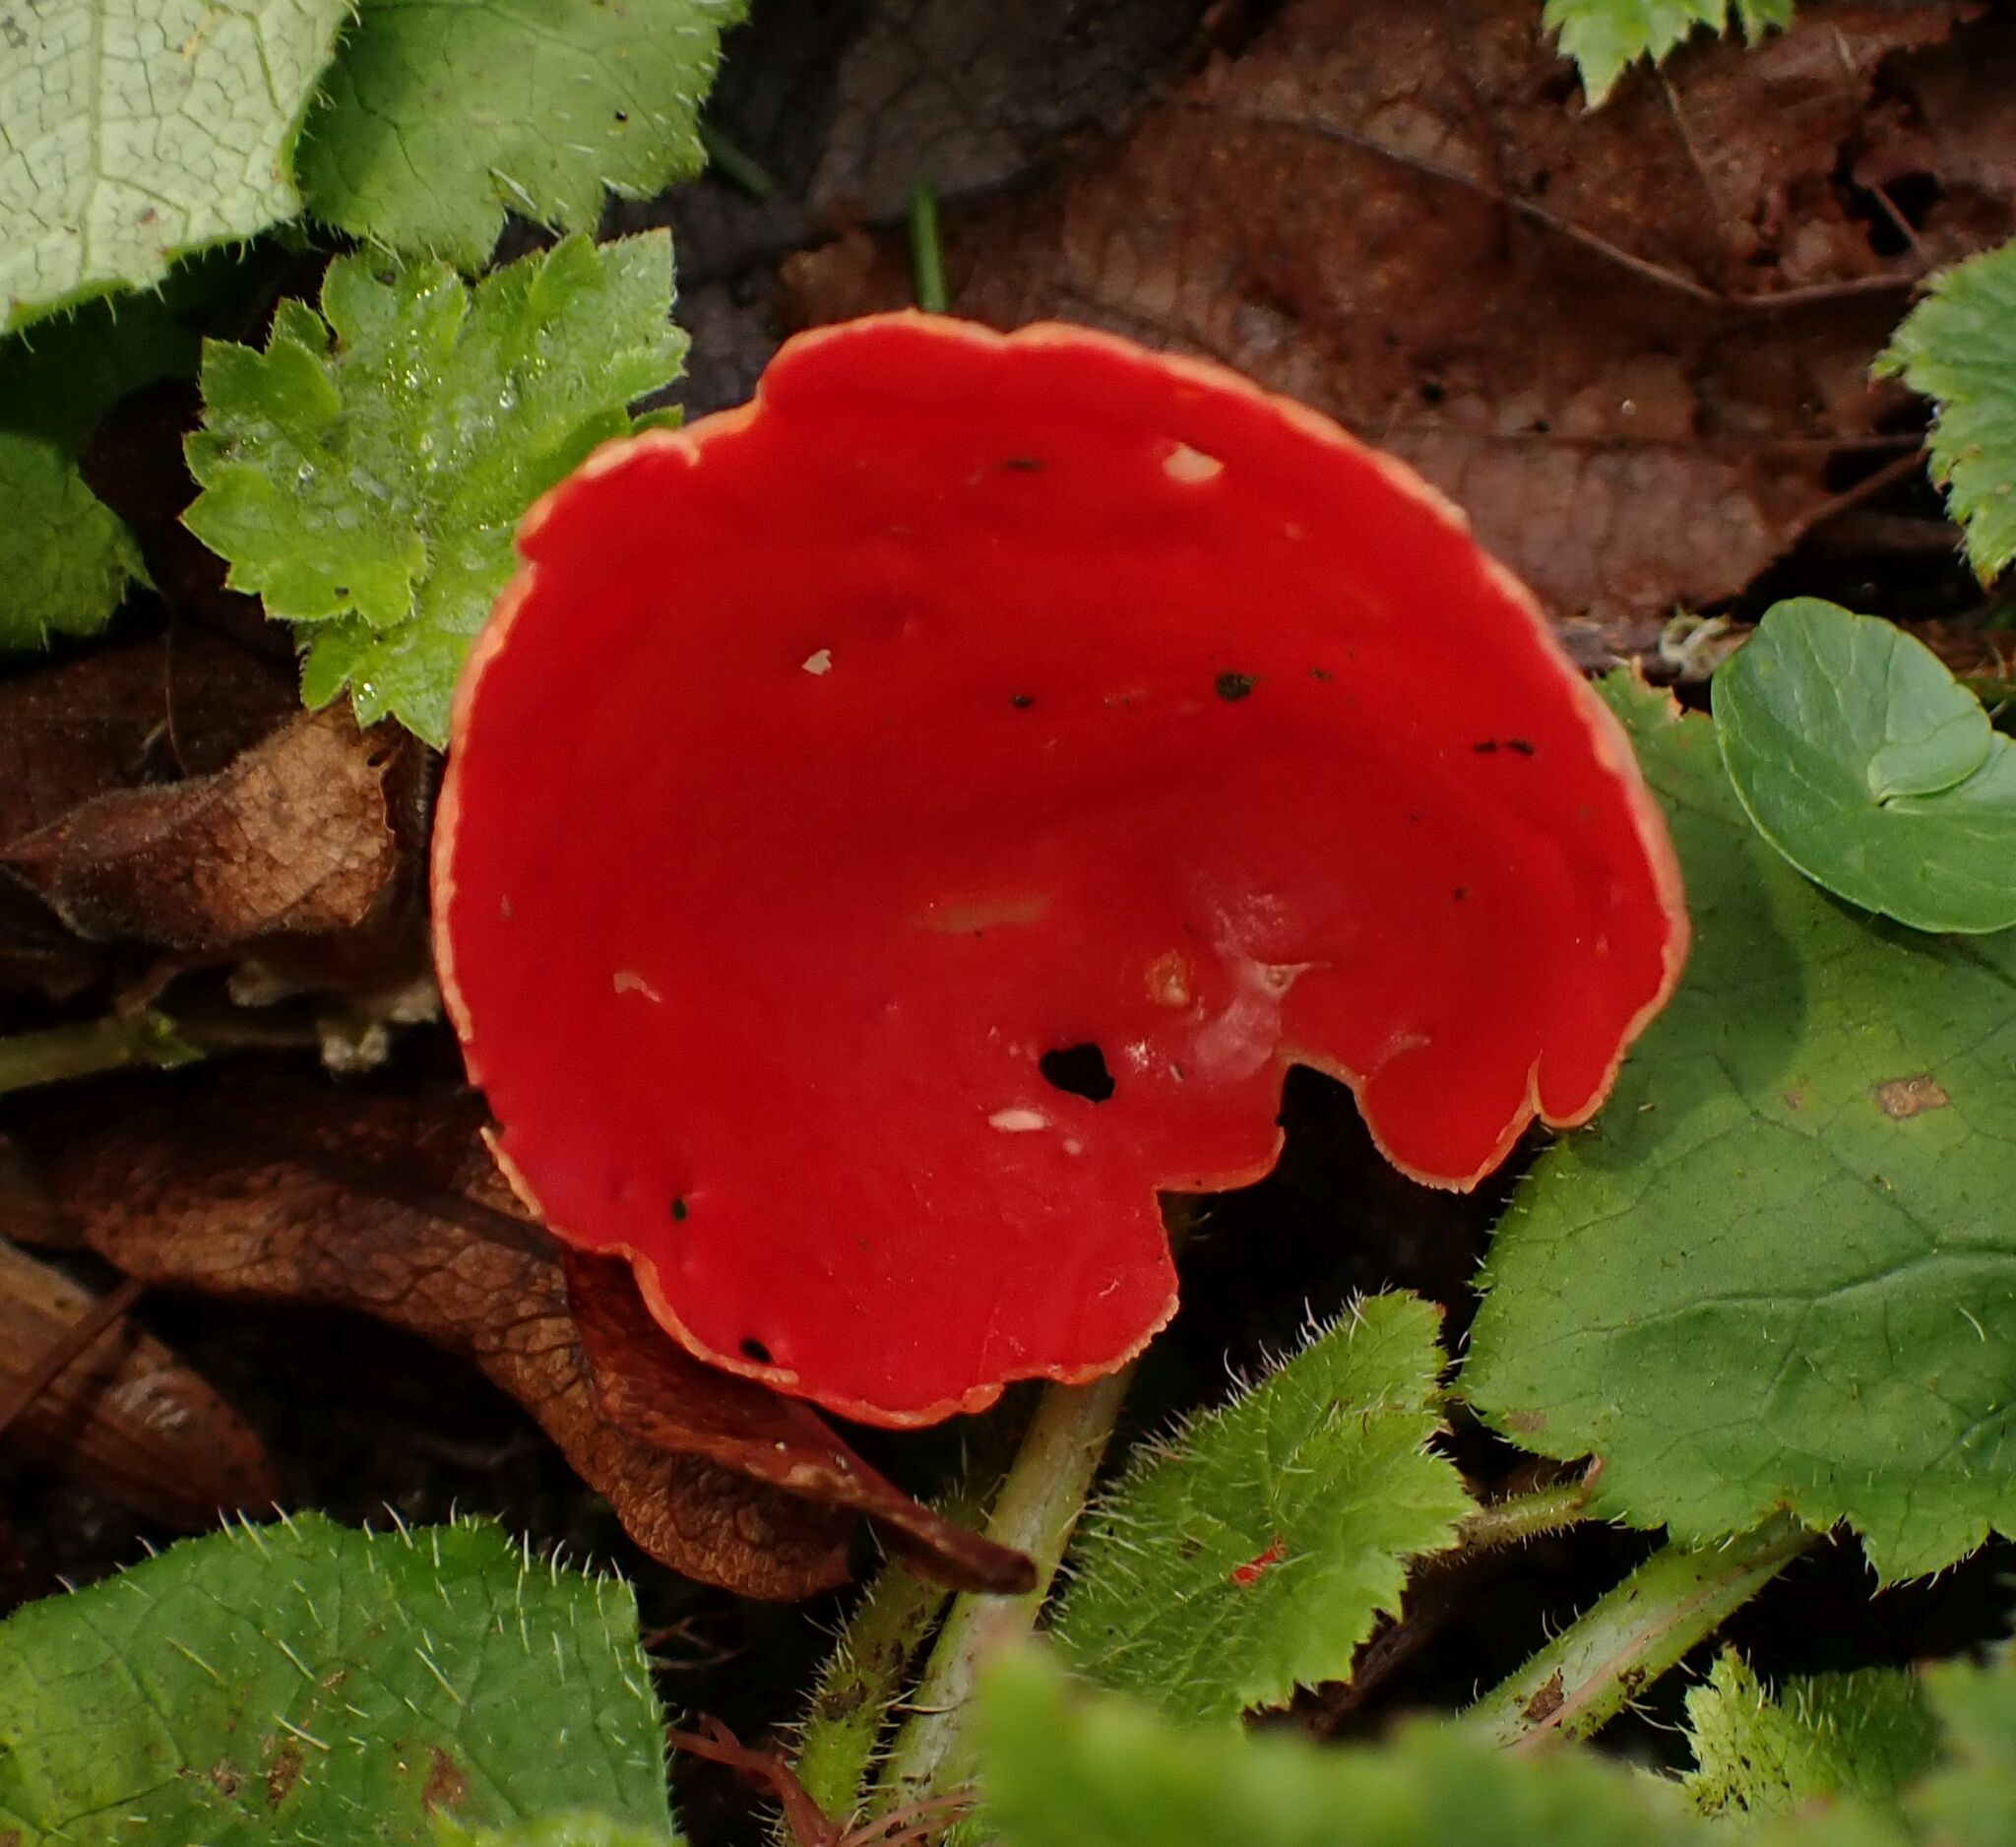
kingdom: Fungi
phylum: Ascomycota
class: Pezizomycetes
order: Pezizales
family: Sarcoscyphaceae
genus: Sarcoscypha
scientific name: Sarcoscypha
